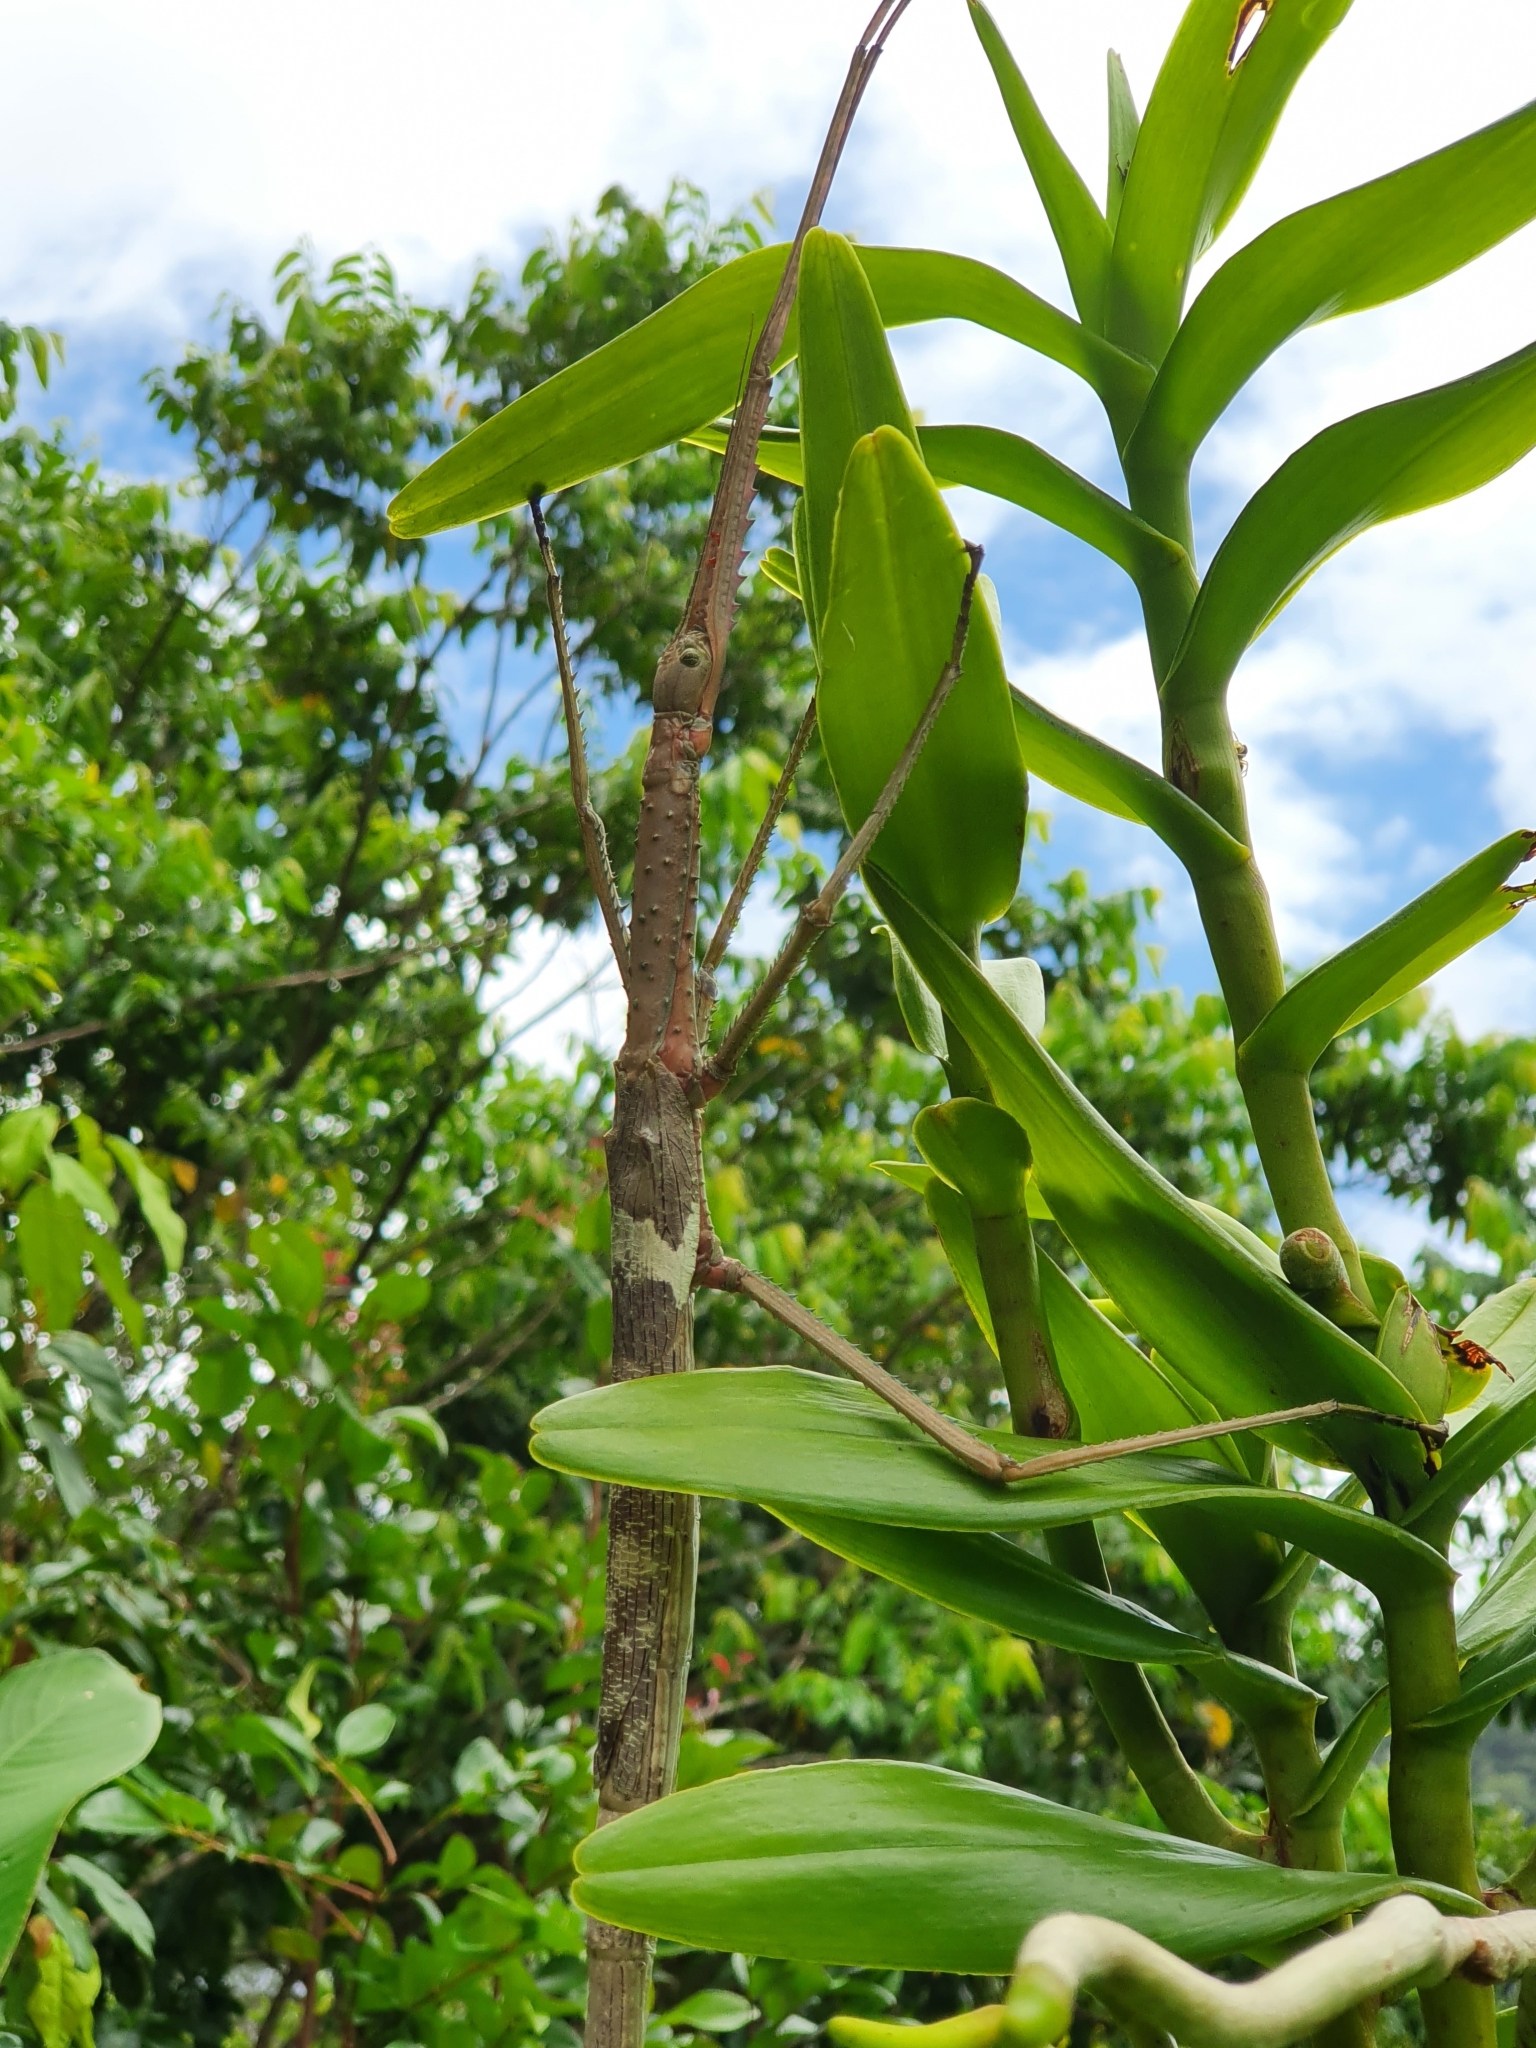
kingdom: Animalia
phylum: Arthropoda
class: Insecta
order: Phasmida
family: Phasmatidae
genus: Acrophylla
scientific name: Acrophylla wuelfingi
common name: Wülfing's stick insect
